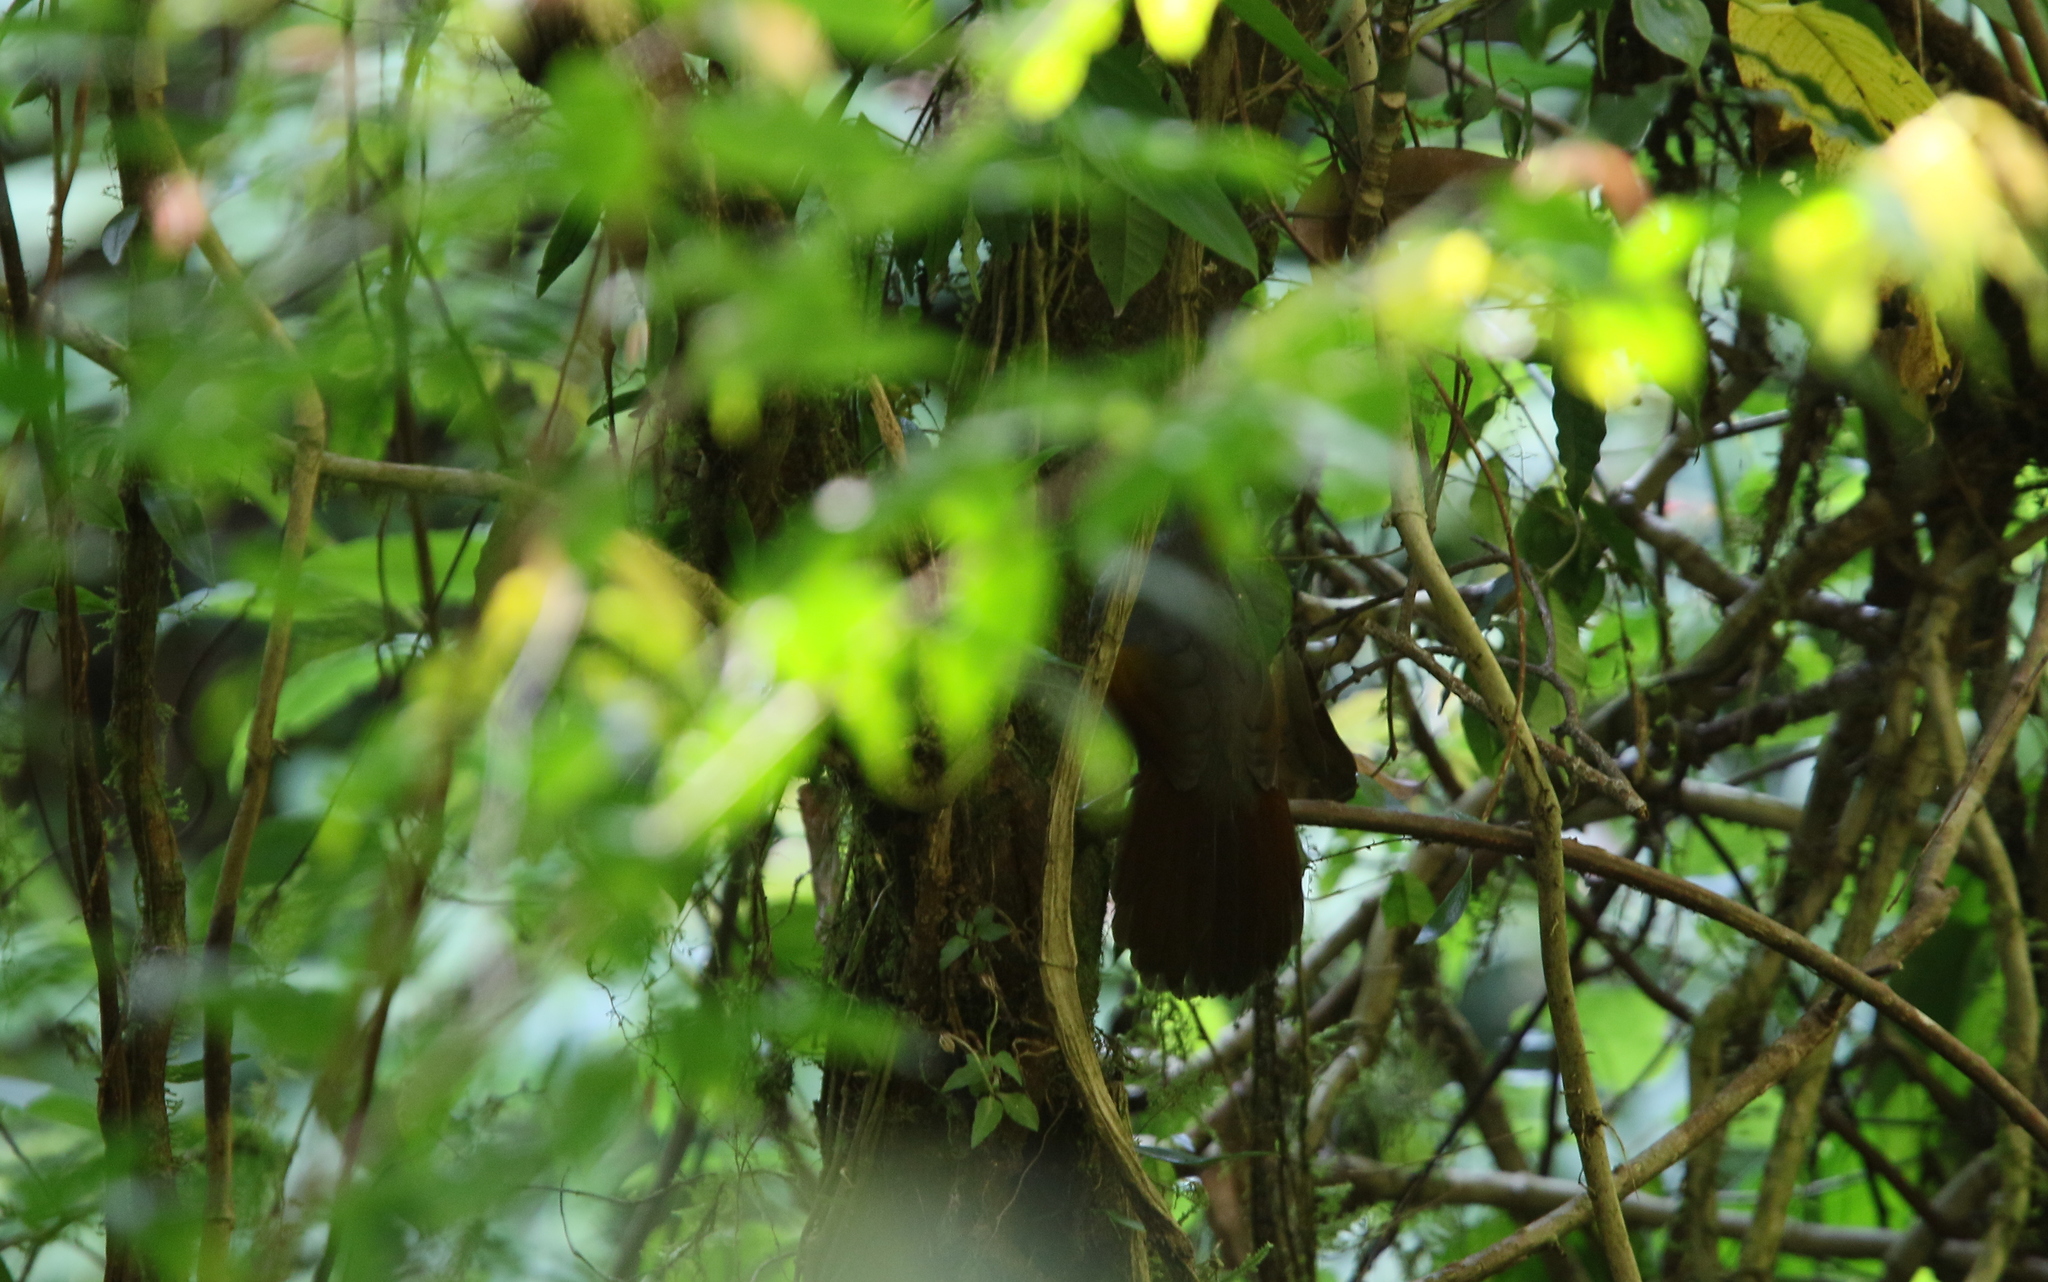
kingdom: Animalia
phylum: Chordata
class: Aves
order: Passeriformes
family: Leiothrichidae
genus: Trochalopteron
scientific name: Trochalopteron ngoclinhense
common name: Golden-winged laughingthrush
